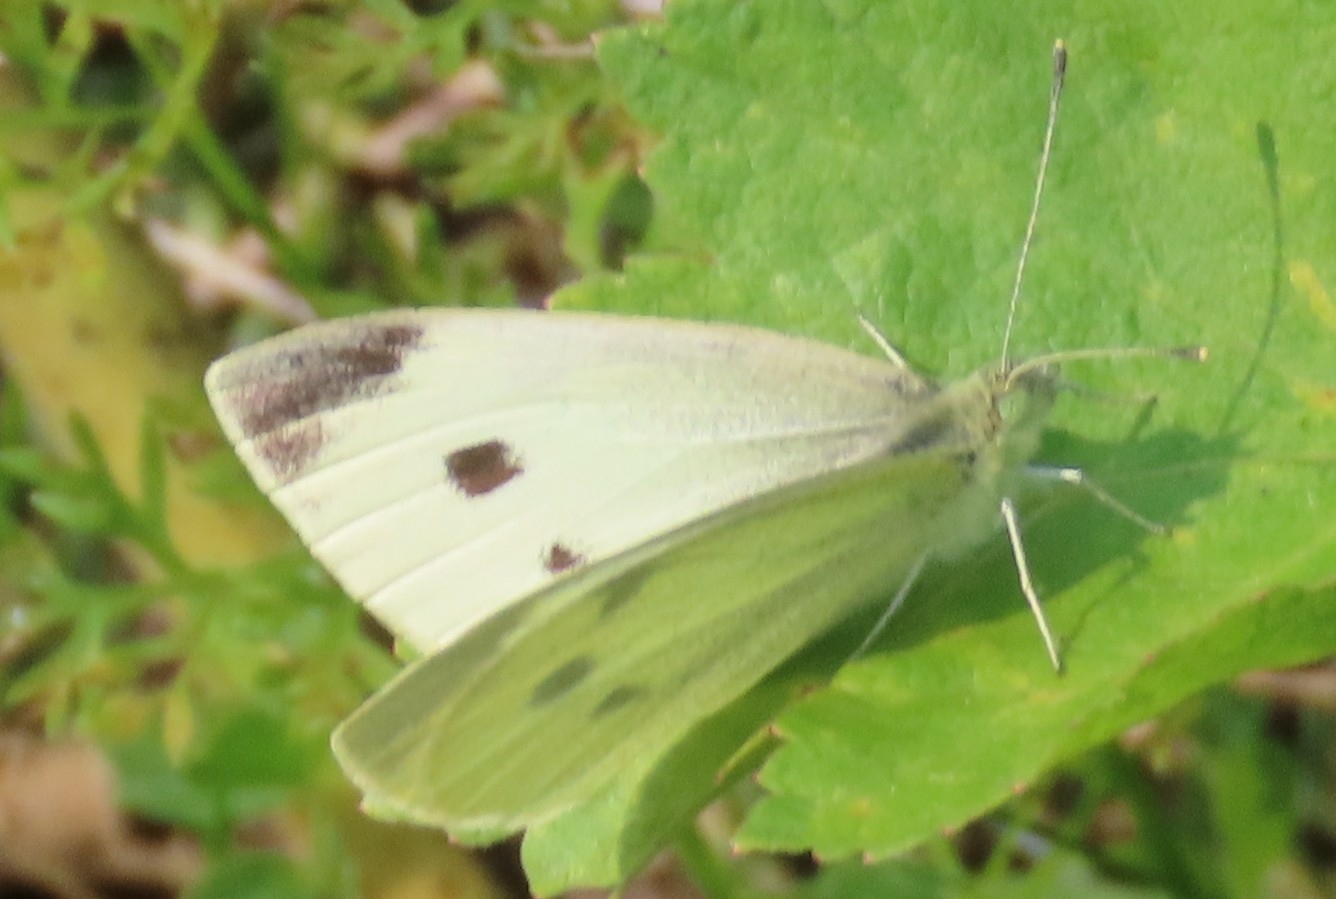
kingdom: Animalia
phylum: Arthropoda
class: Insecta
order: Lepidoptera
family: Pieridae
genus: Pieris
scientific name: Pieris rapae
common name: Small white
